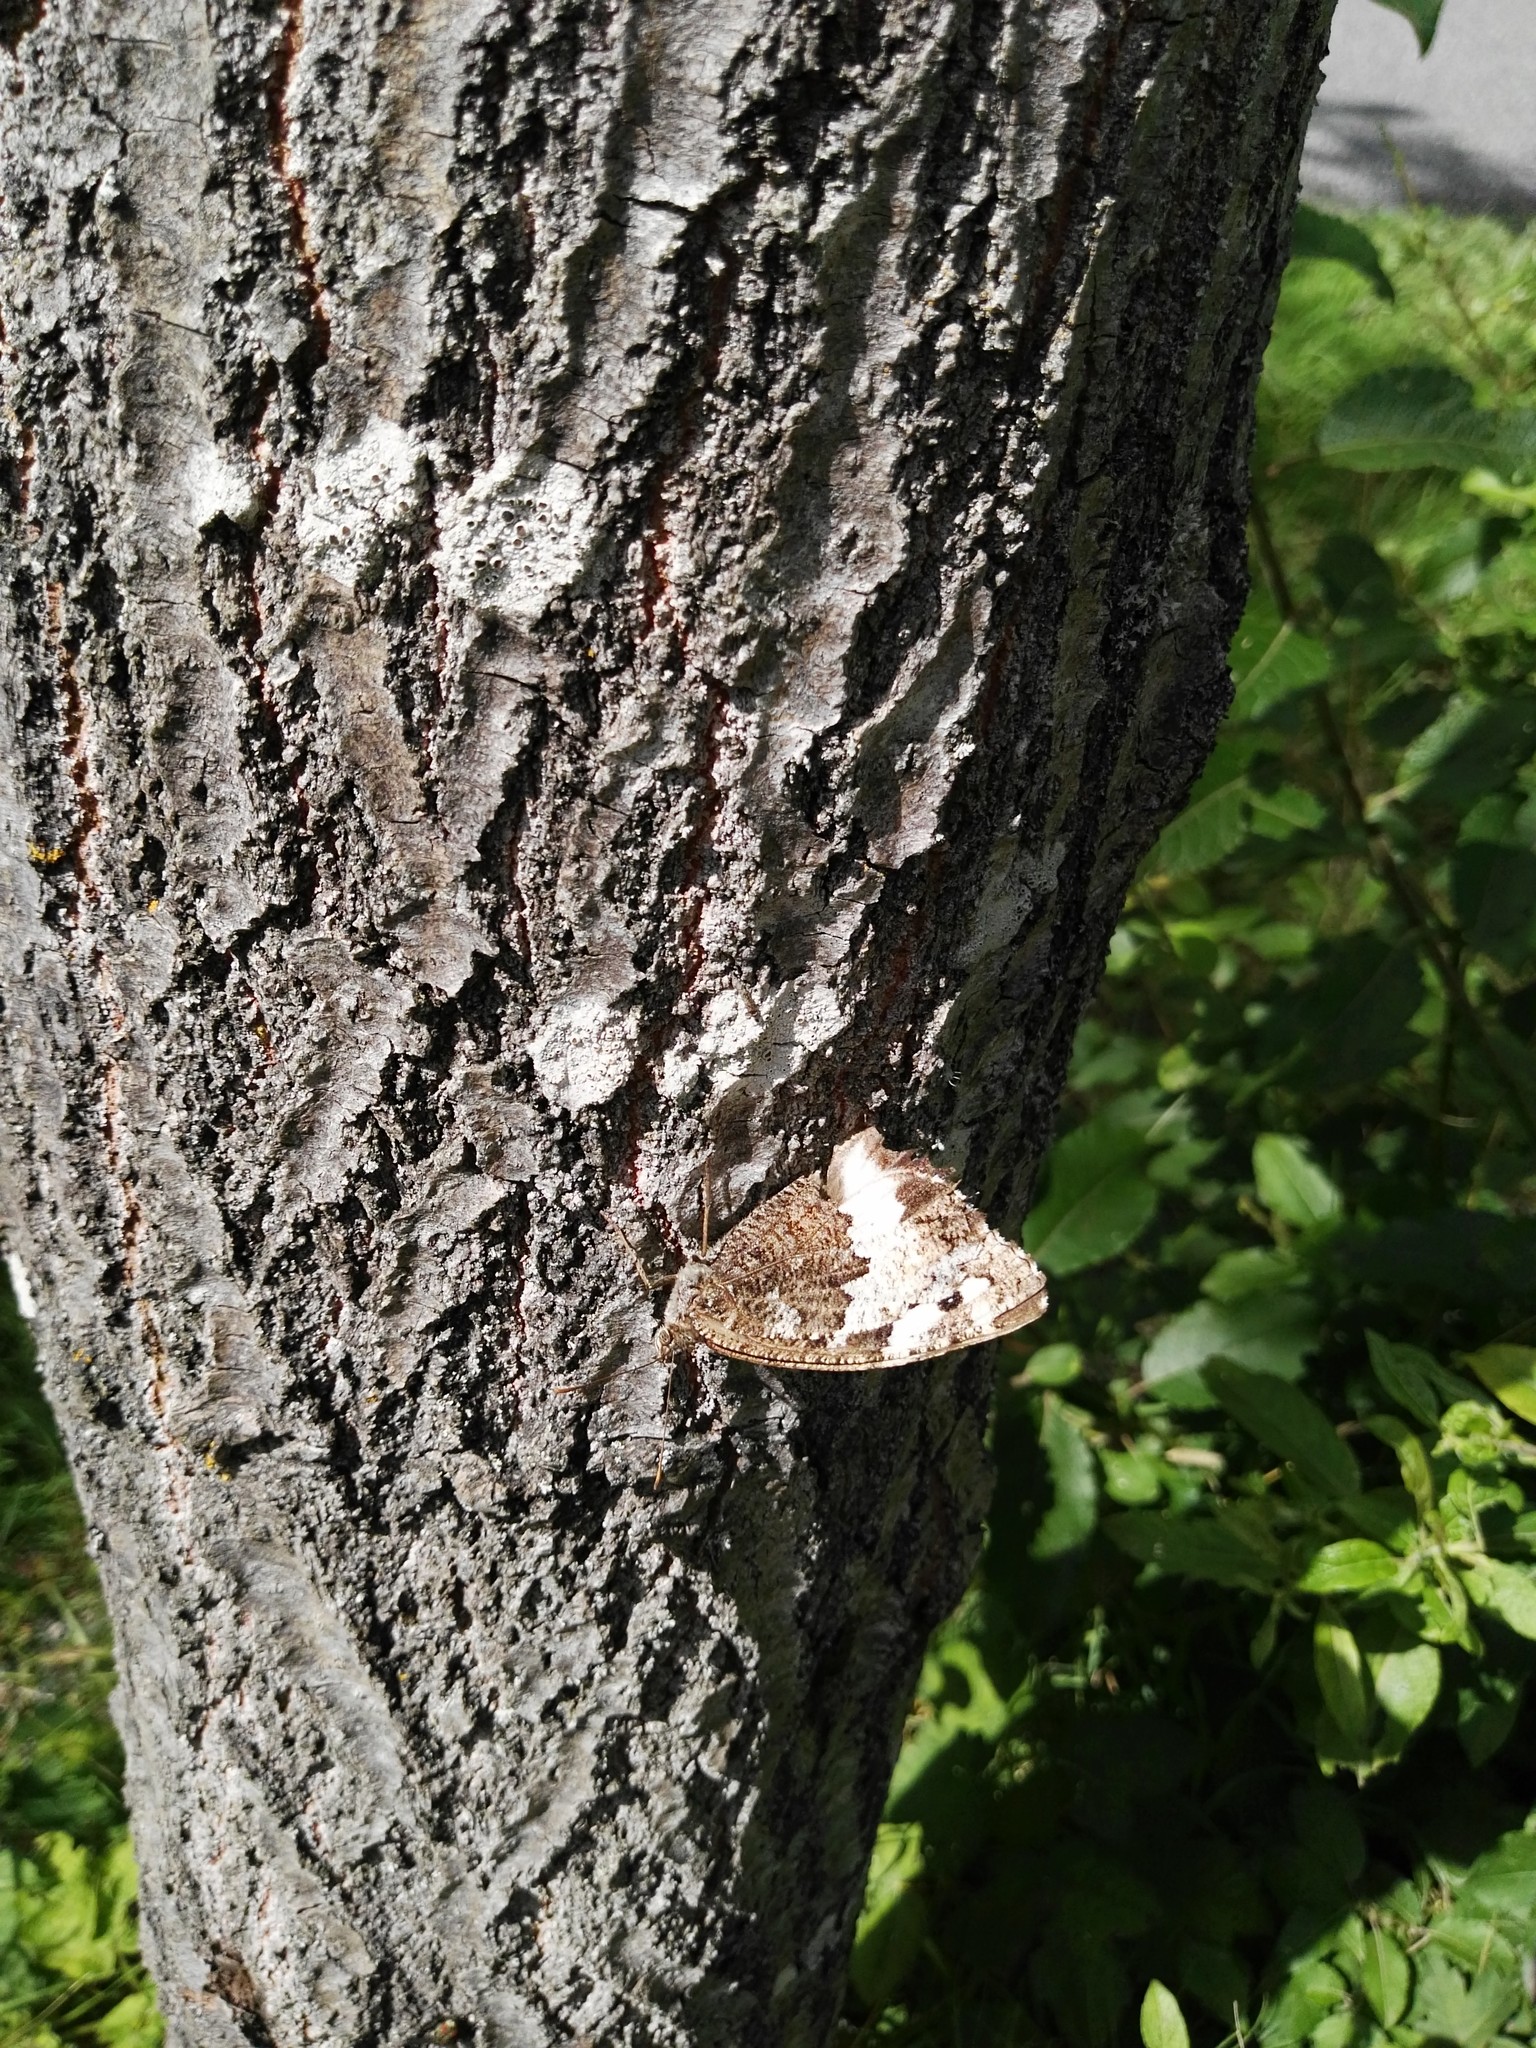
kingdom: Animalia
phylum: Arthropoda
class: Insecta
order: Lepidoptera
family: Lycaenidae
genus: Loweia
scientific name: Loweia tityrus
